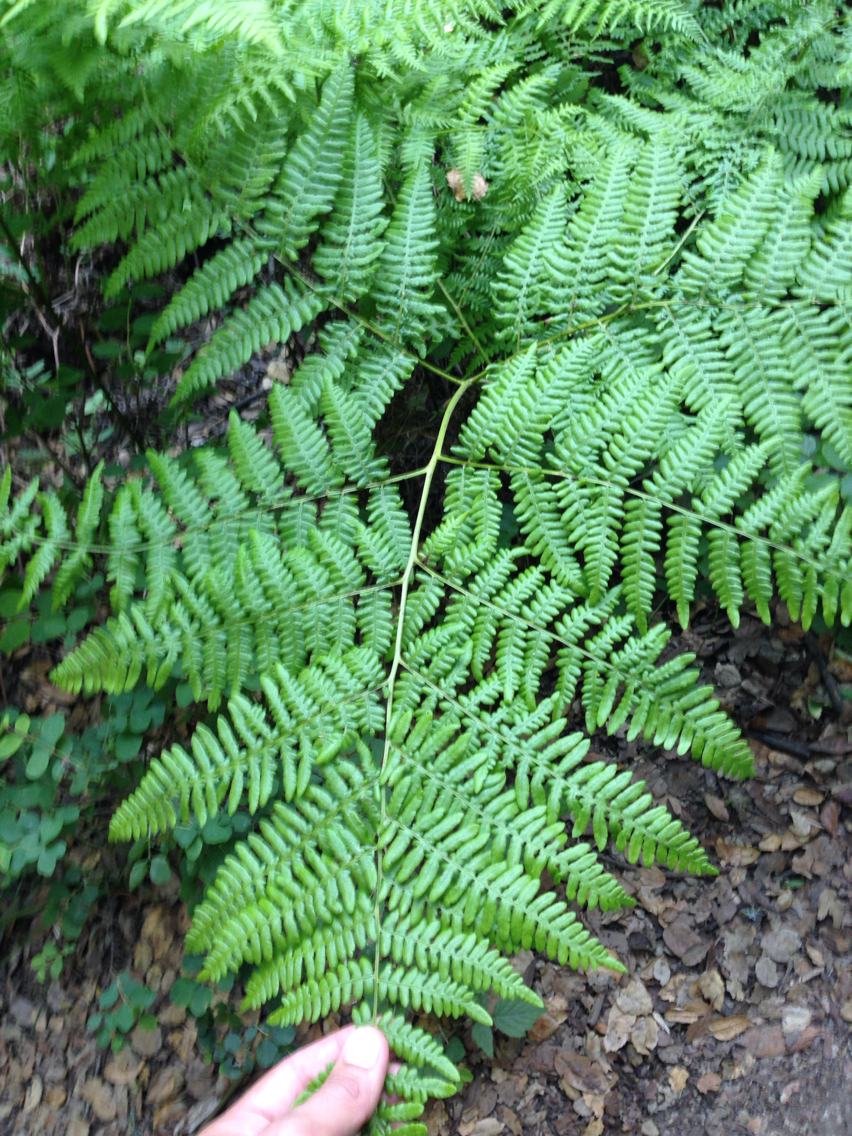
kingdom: Plantae
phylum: Tracheophyta
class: Polypodiopsida
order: Polypodiales
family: Dennstaedtiaceae
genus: Pteridium
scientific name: Pteridium aquilinum
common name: Bracken
